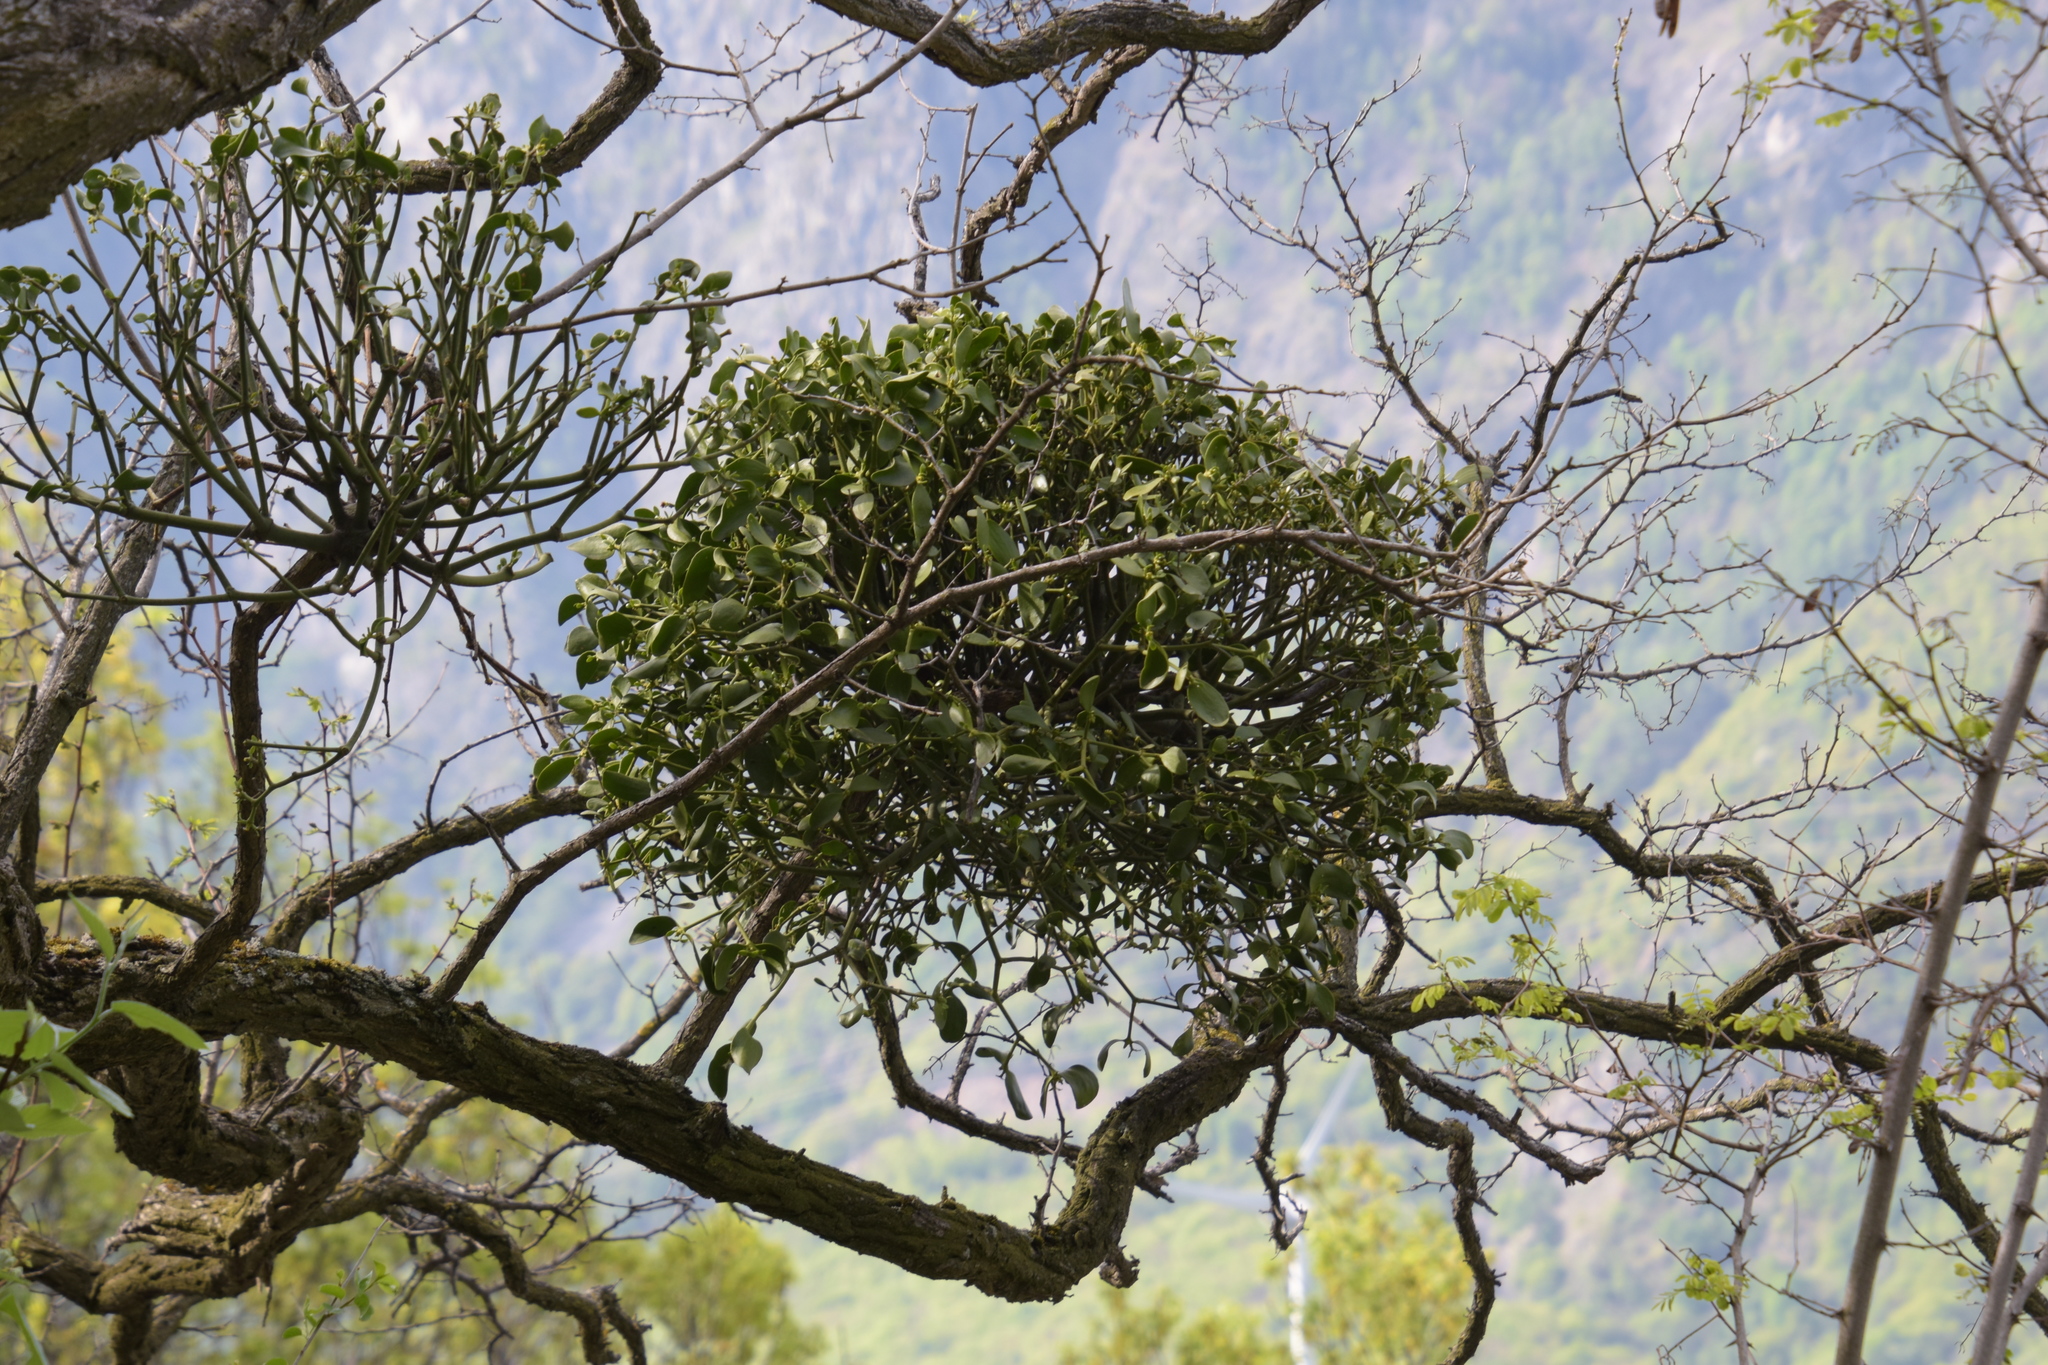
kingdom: Plantae
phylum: Tracheophyta
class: Magnoliopsida
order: Santalales
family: Viscaceae
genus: Viscum
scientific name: Viscum album
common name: Mistletoe
